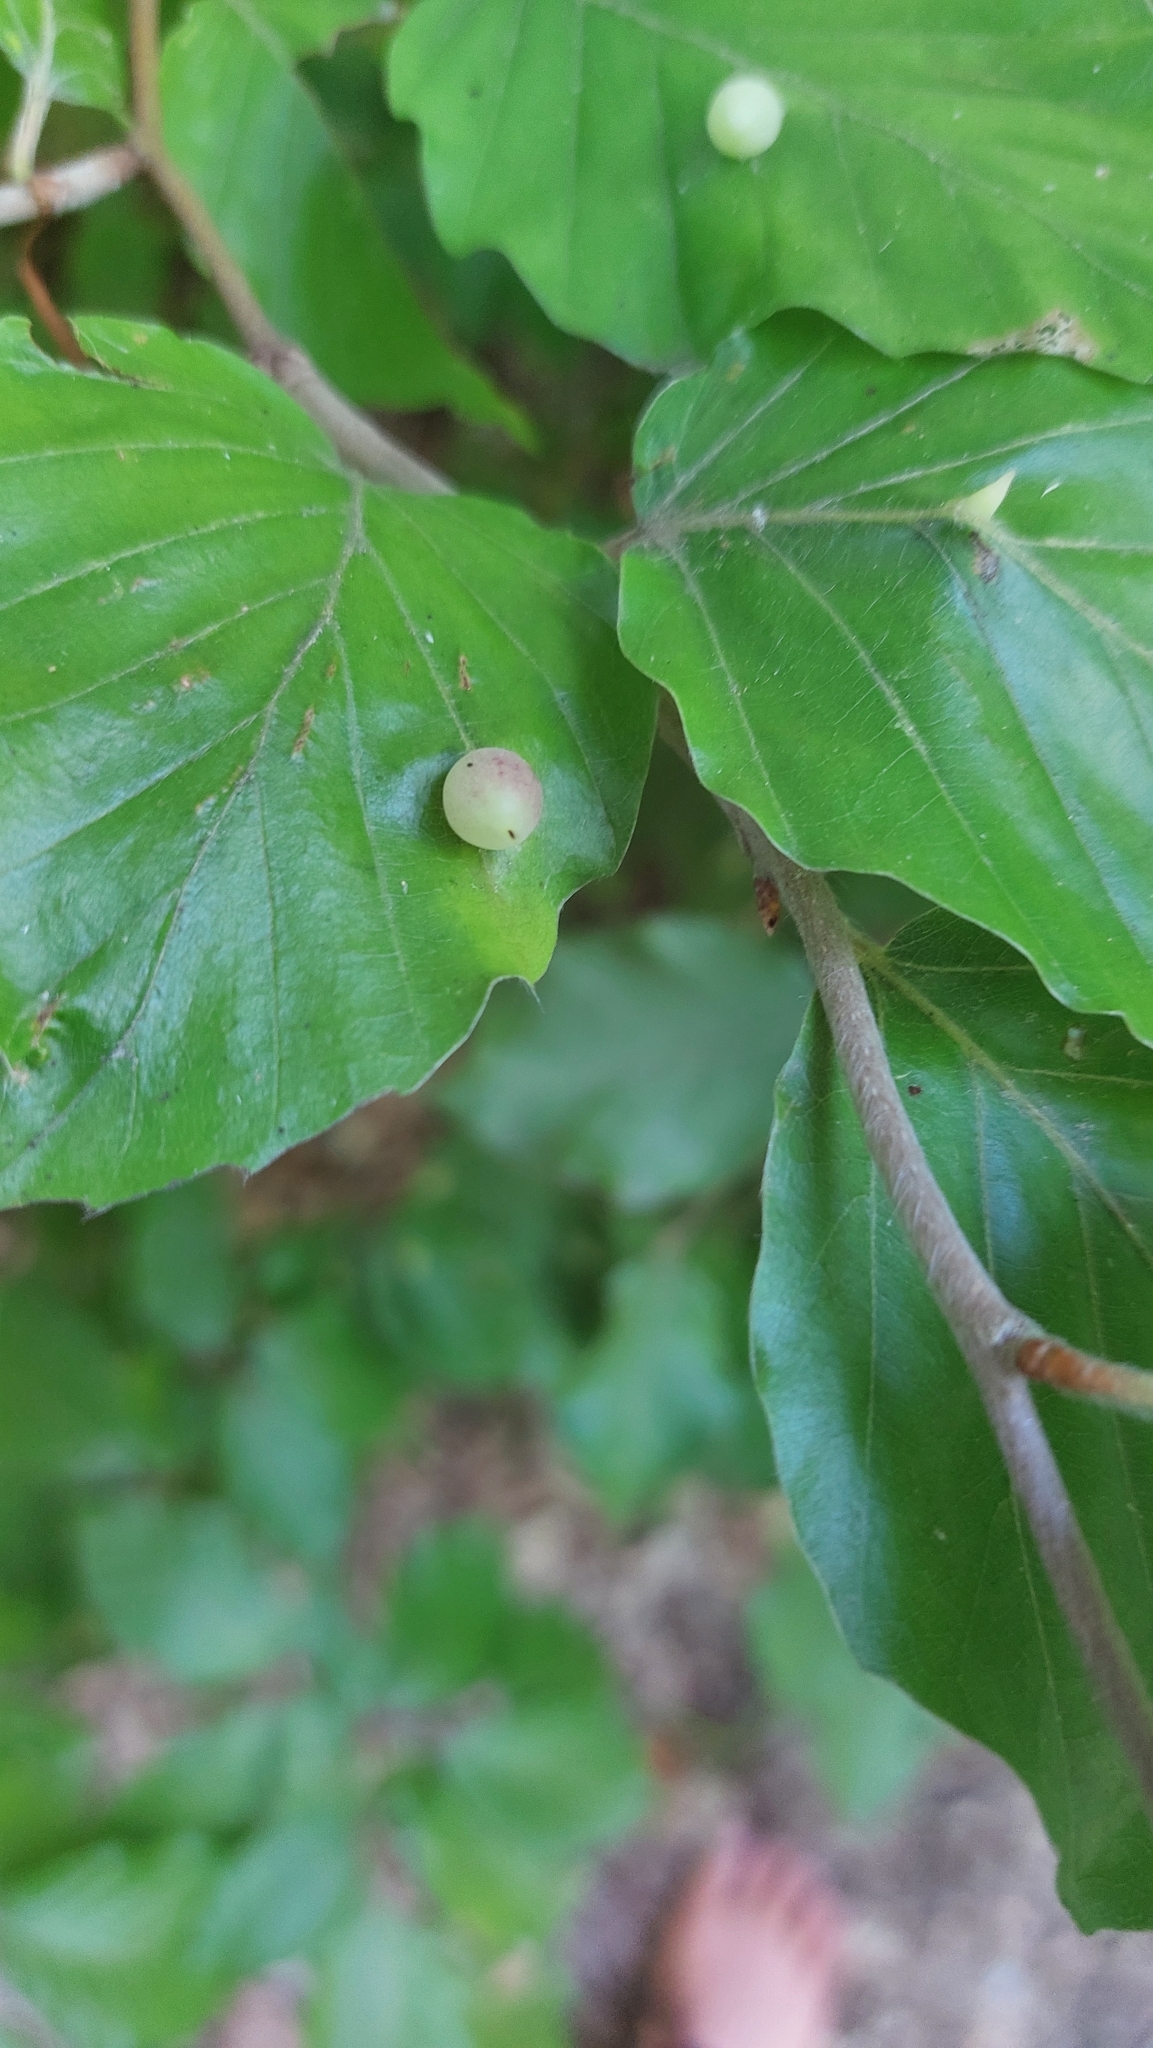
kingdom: Animalia
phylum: Arthropoda
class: Insecta
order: Diptera
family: Cecidomyiidae
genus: Mikiola
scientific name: Mikiola fagi
